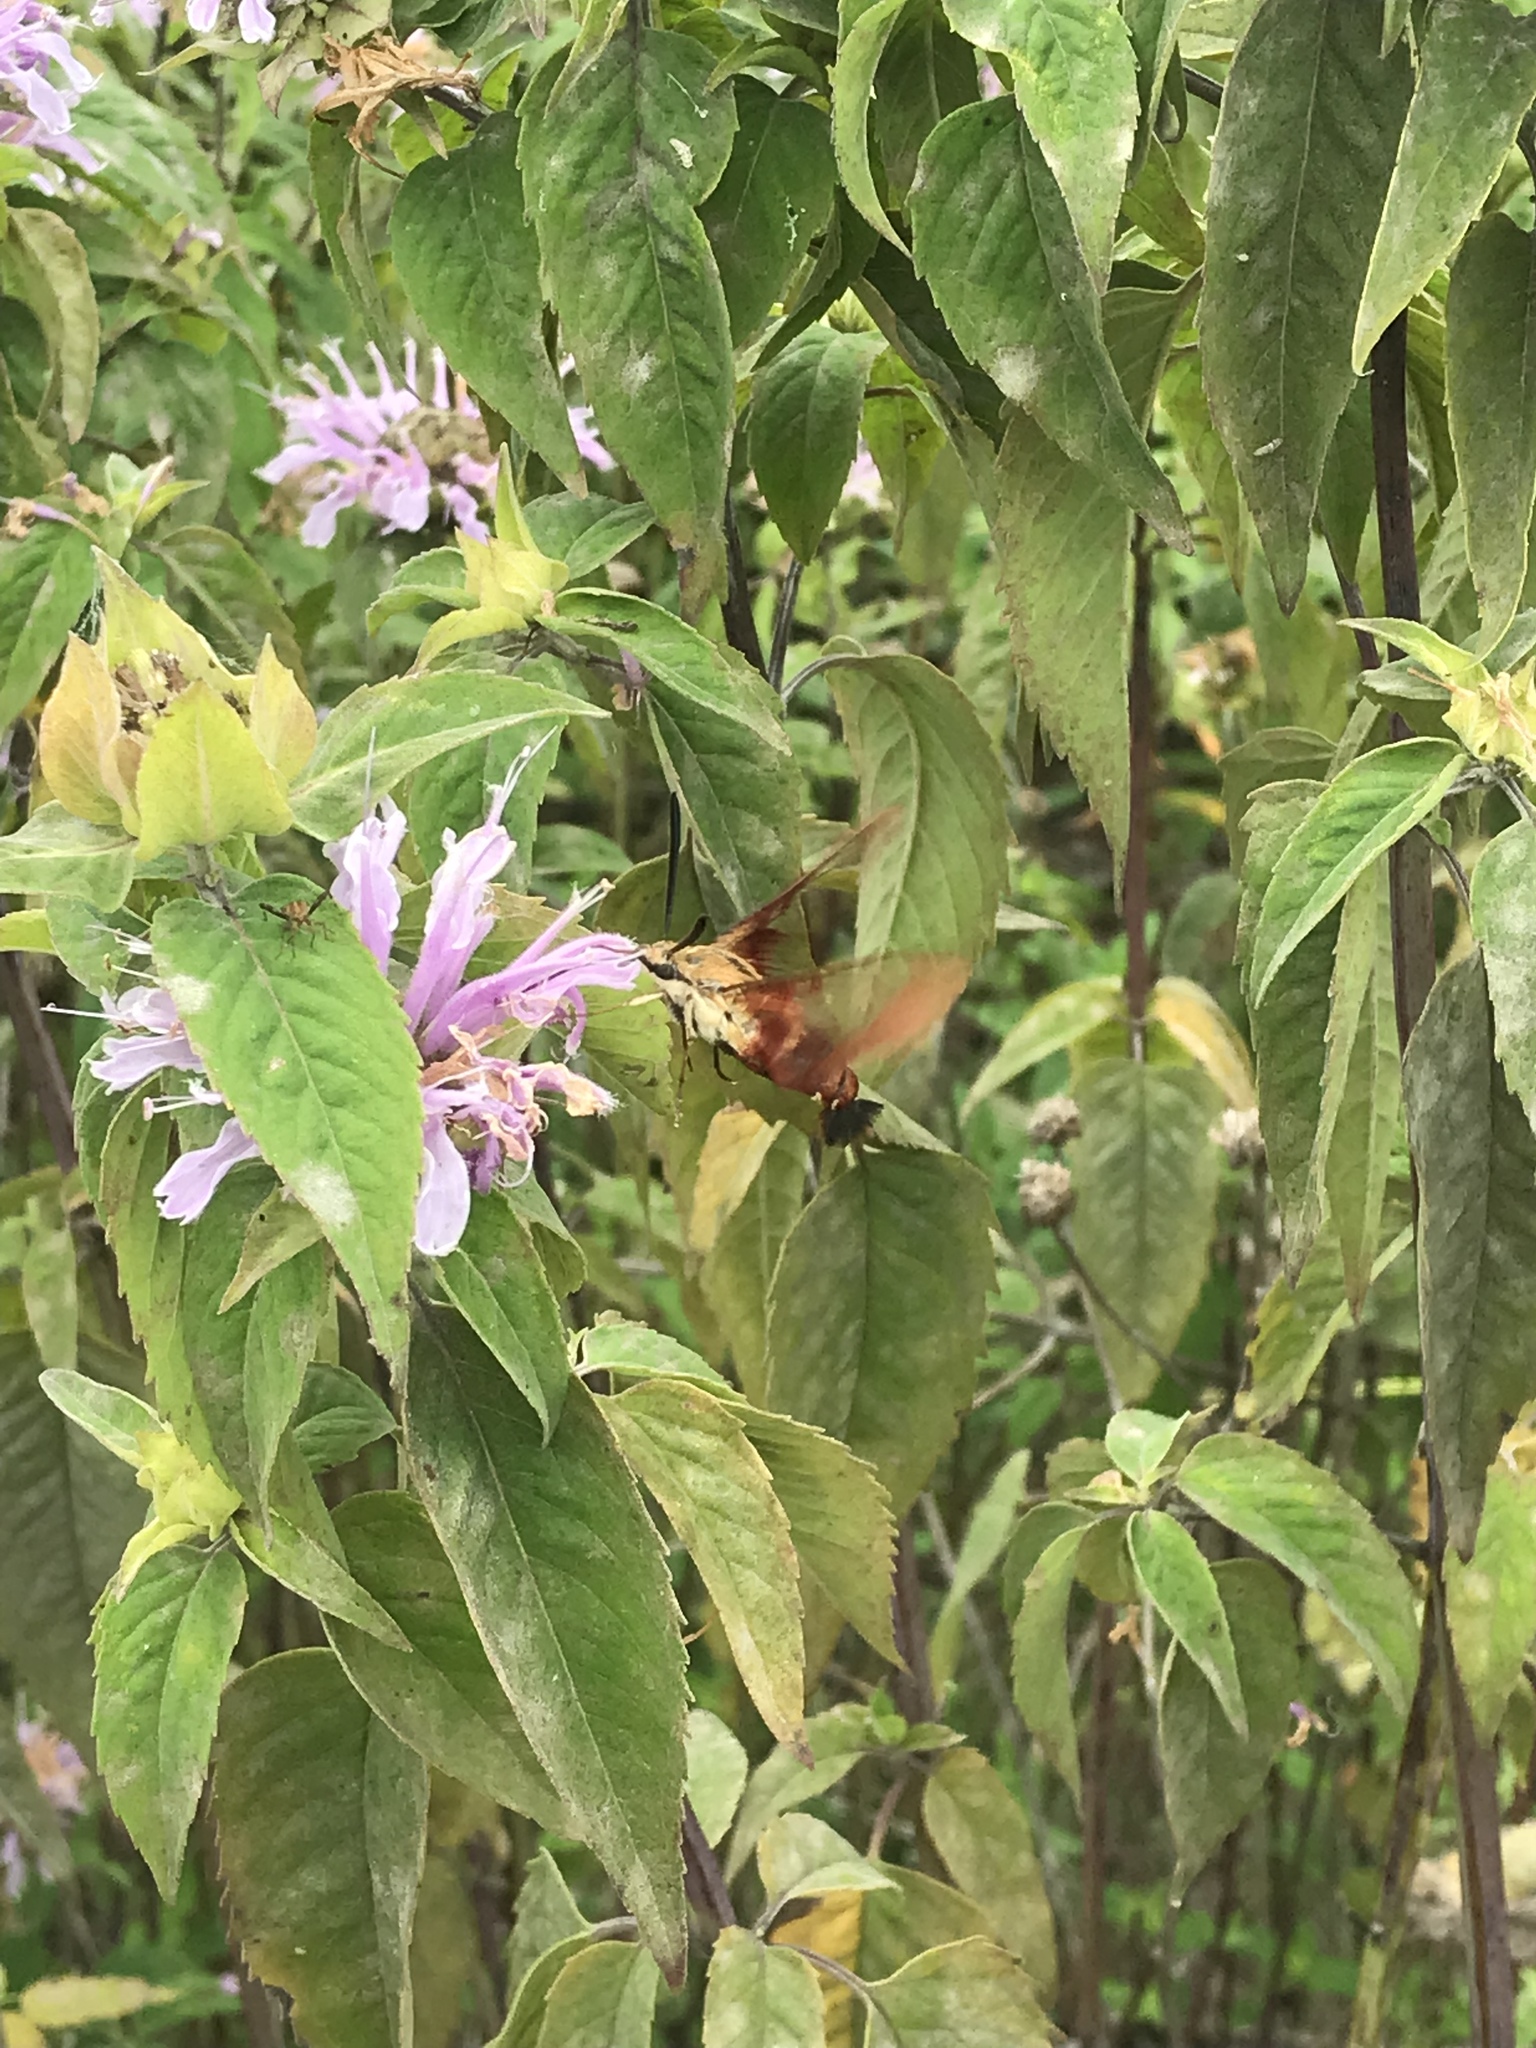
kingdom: Animalia
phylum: Arthropoda
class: Insecta
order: Lepidoptera
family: Sphingidae
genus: Hemaris
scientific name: Hemaris thysbe
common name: Common clear-wing
